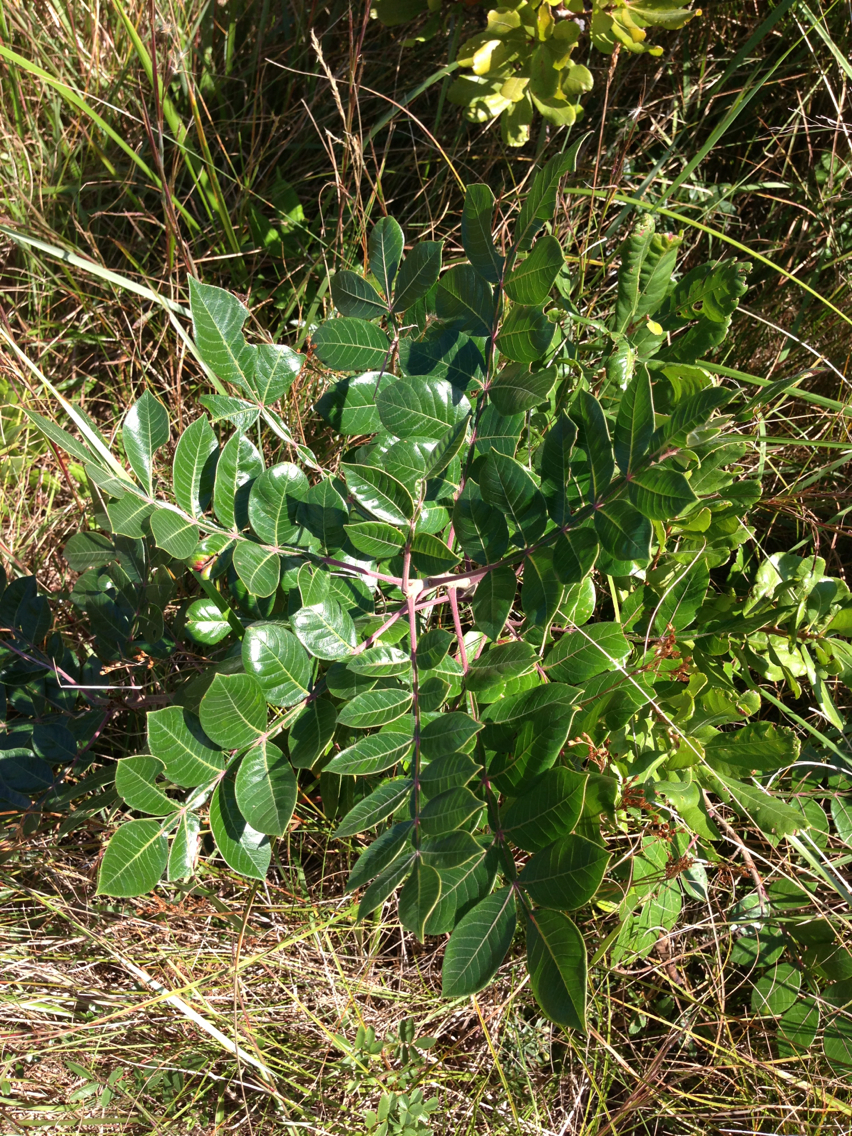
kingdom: Plantae
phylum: Tracheophyta
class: Magnoliopsida
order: Sapindales
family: Anacardiaceae
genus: Rhus
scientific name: Rhus copallina
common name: Shining sumac
